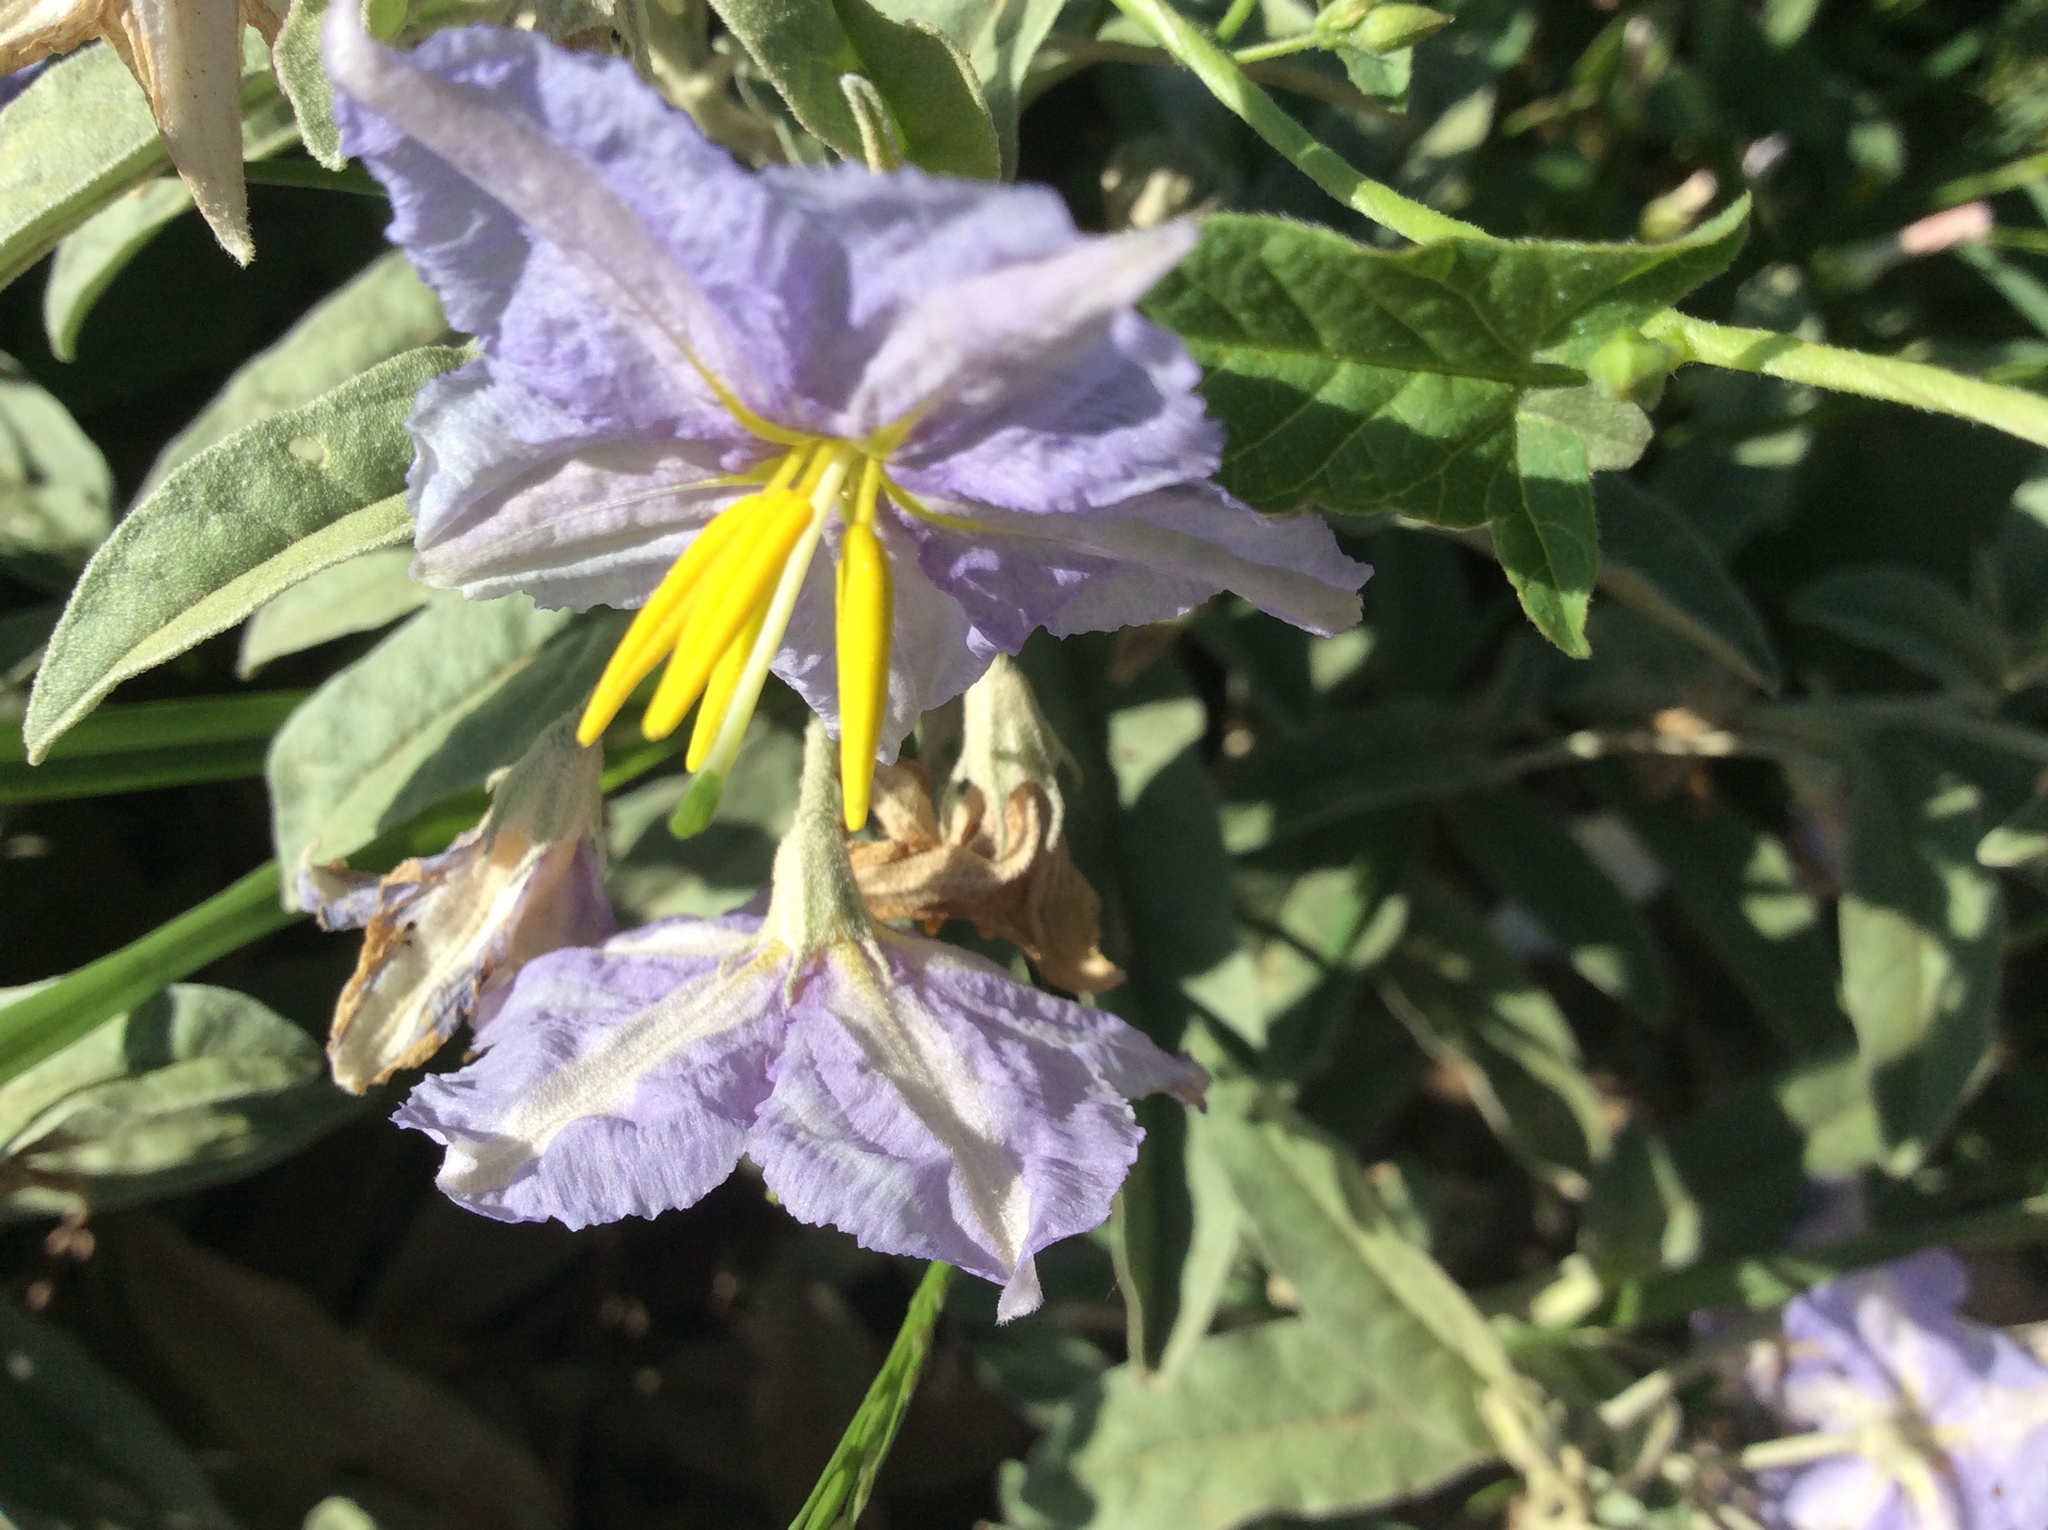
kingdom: Plantae
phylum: Tracheophyta
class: Magnoliopsida
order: Solanales
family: Solanaceae
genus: Solanum
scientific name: Solanum elaeagnifolium
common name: Silverleaf nightshade
